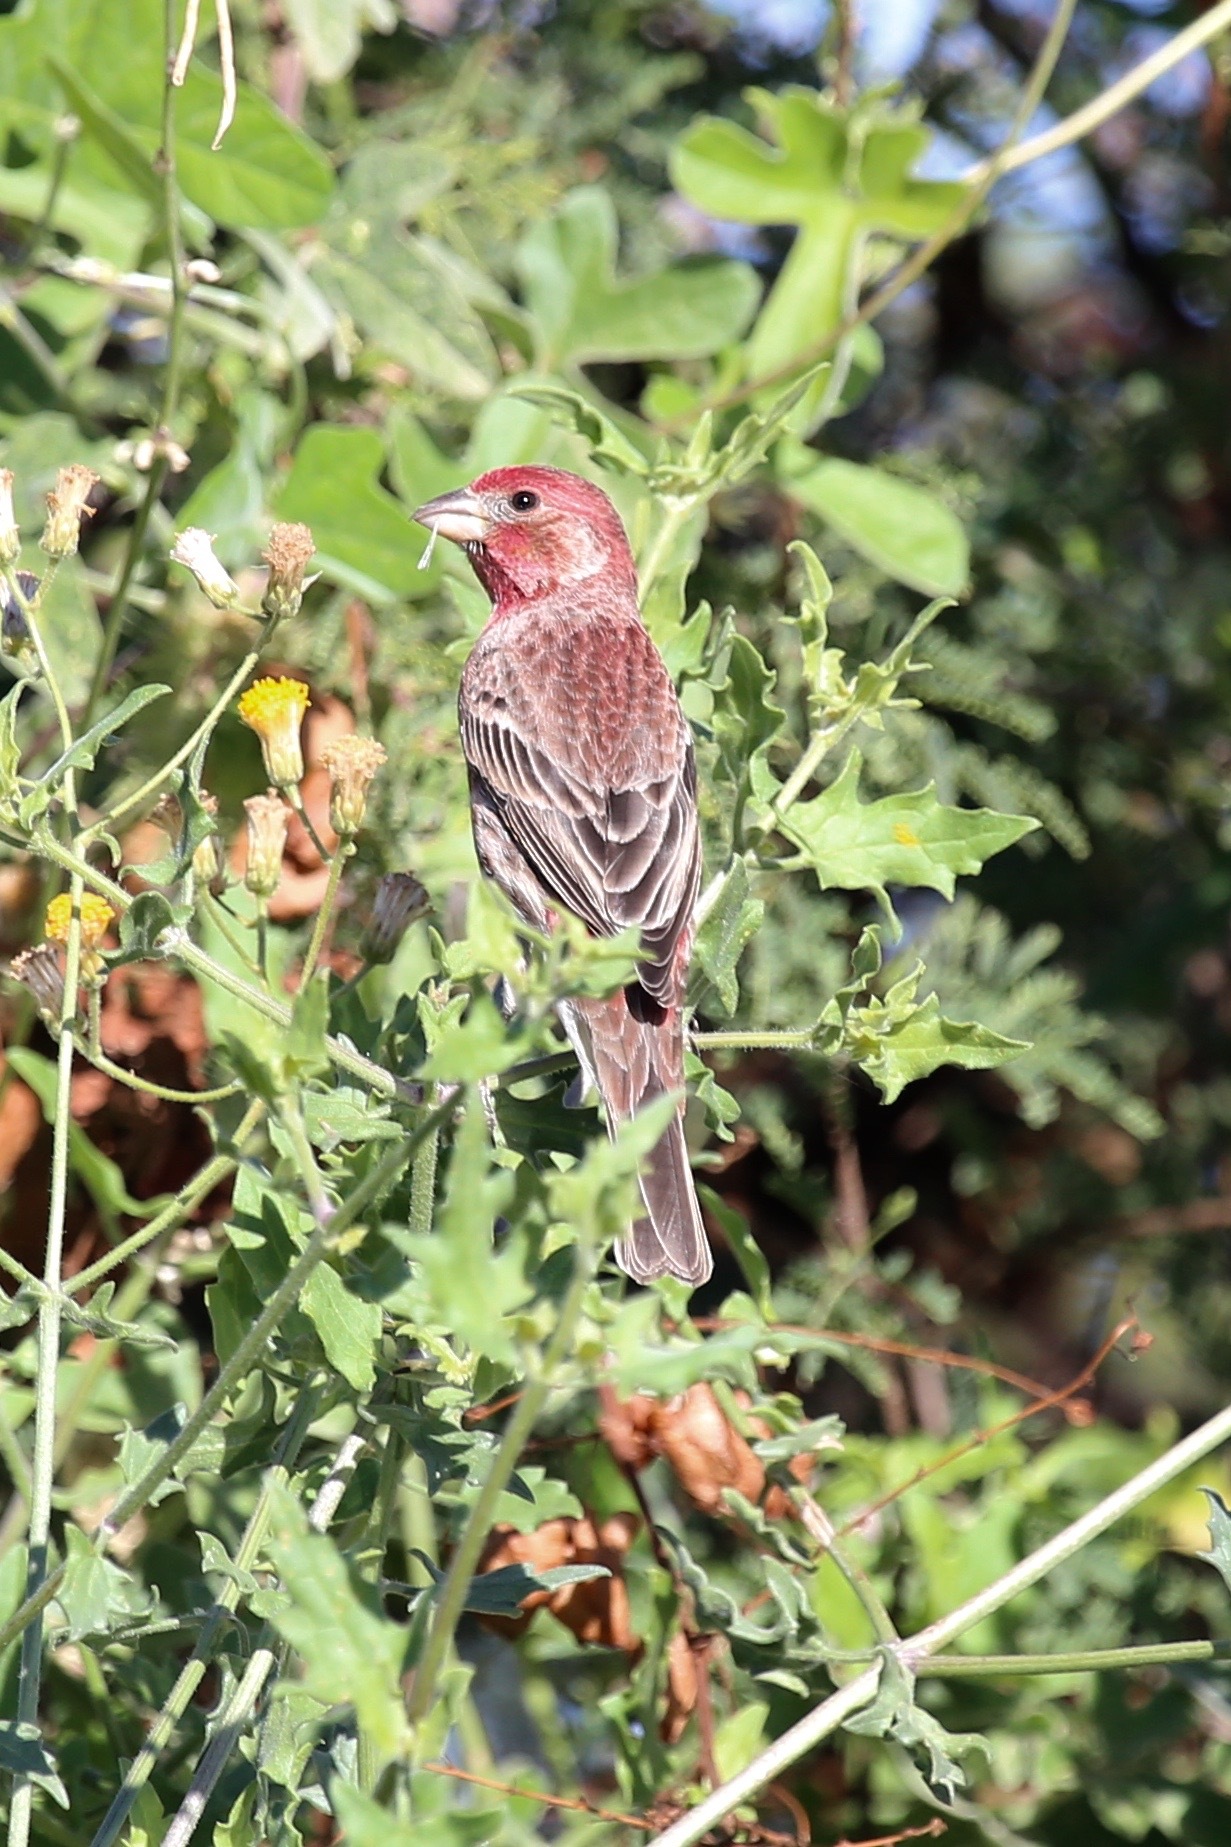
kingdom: Animalia
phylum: Chordata
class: Aves
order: Passeriformes
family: Fringillidae
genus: Haemorhous
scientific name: Haemorhous mexicanus
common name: House finch
